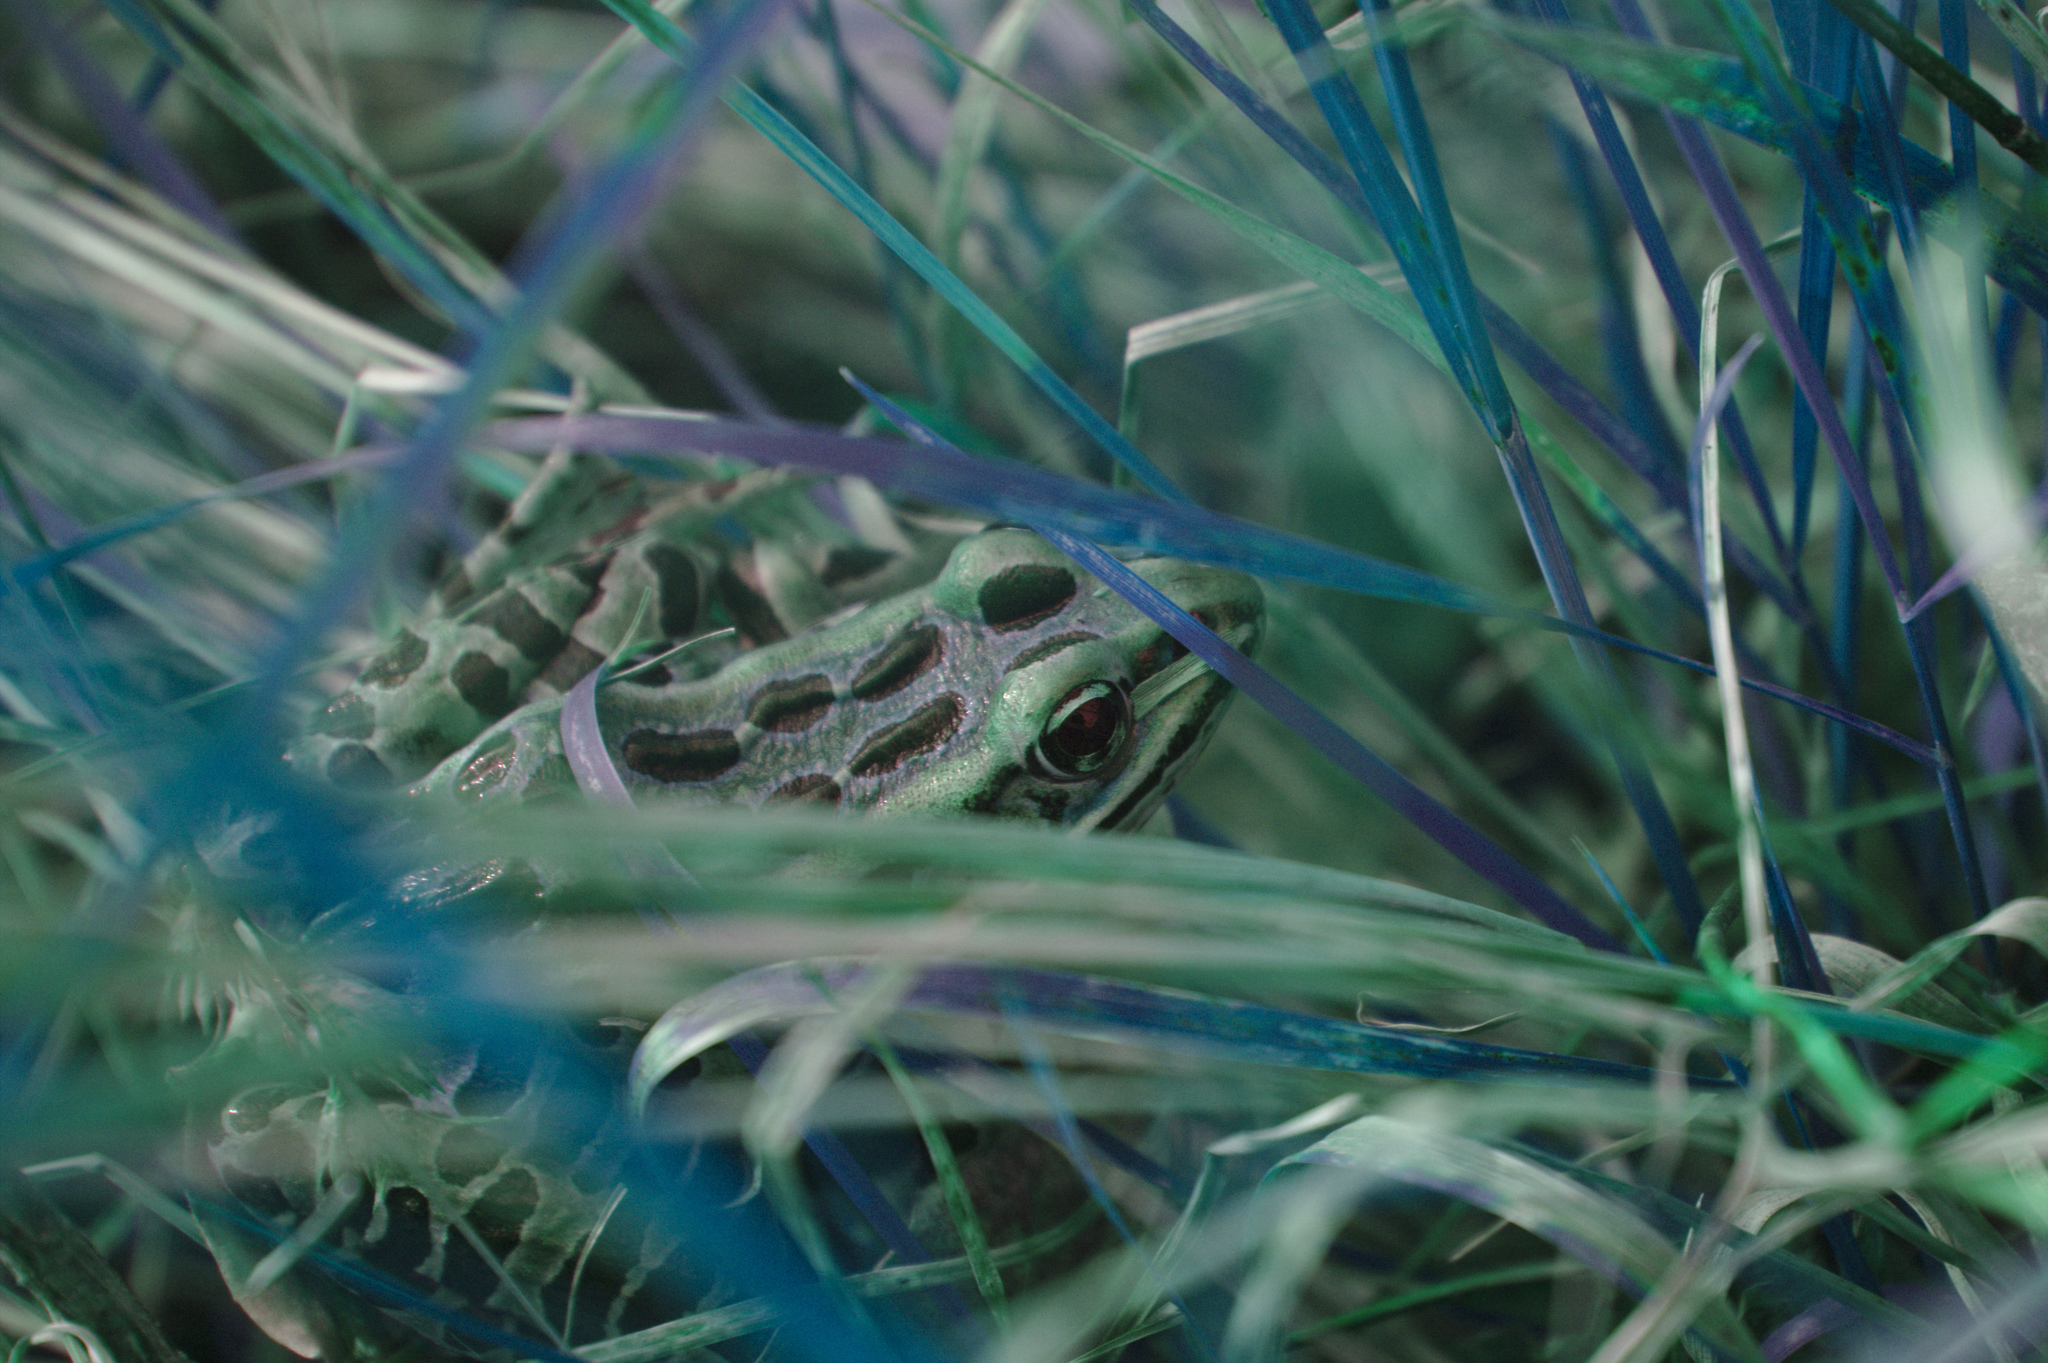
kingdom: Animalia
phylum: Chordata
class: Amphibia
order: Anura
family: Ranidae
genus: Lithobates
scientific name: Lithobates pipiens
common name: Northern leopard frog
